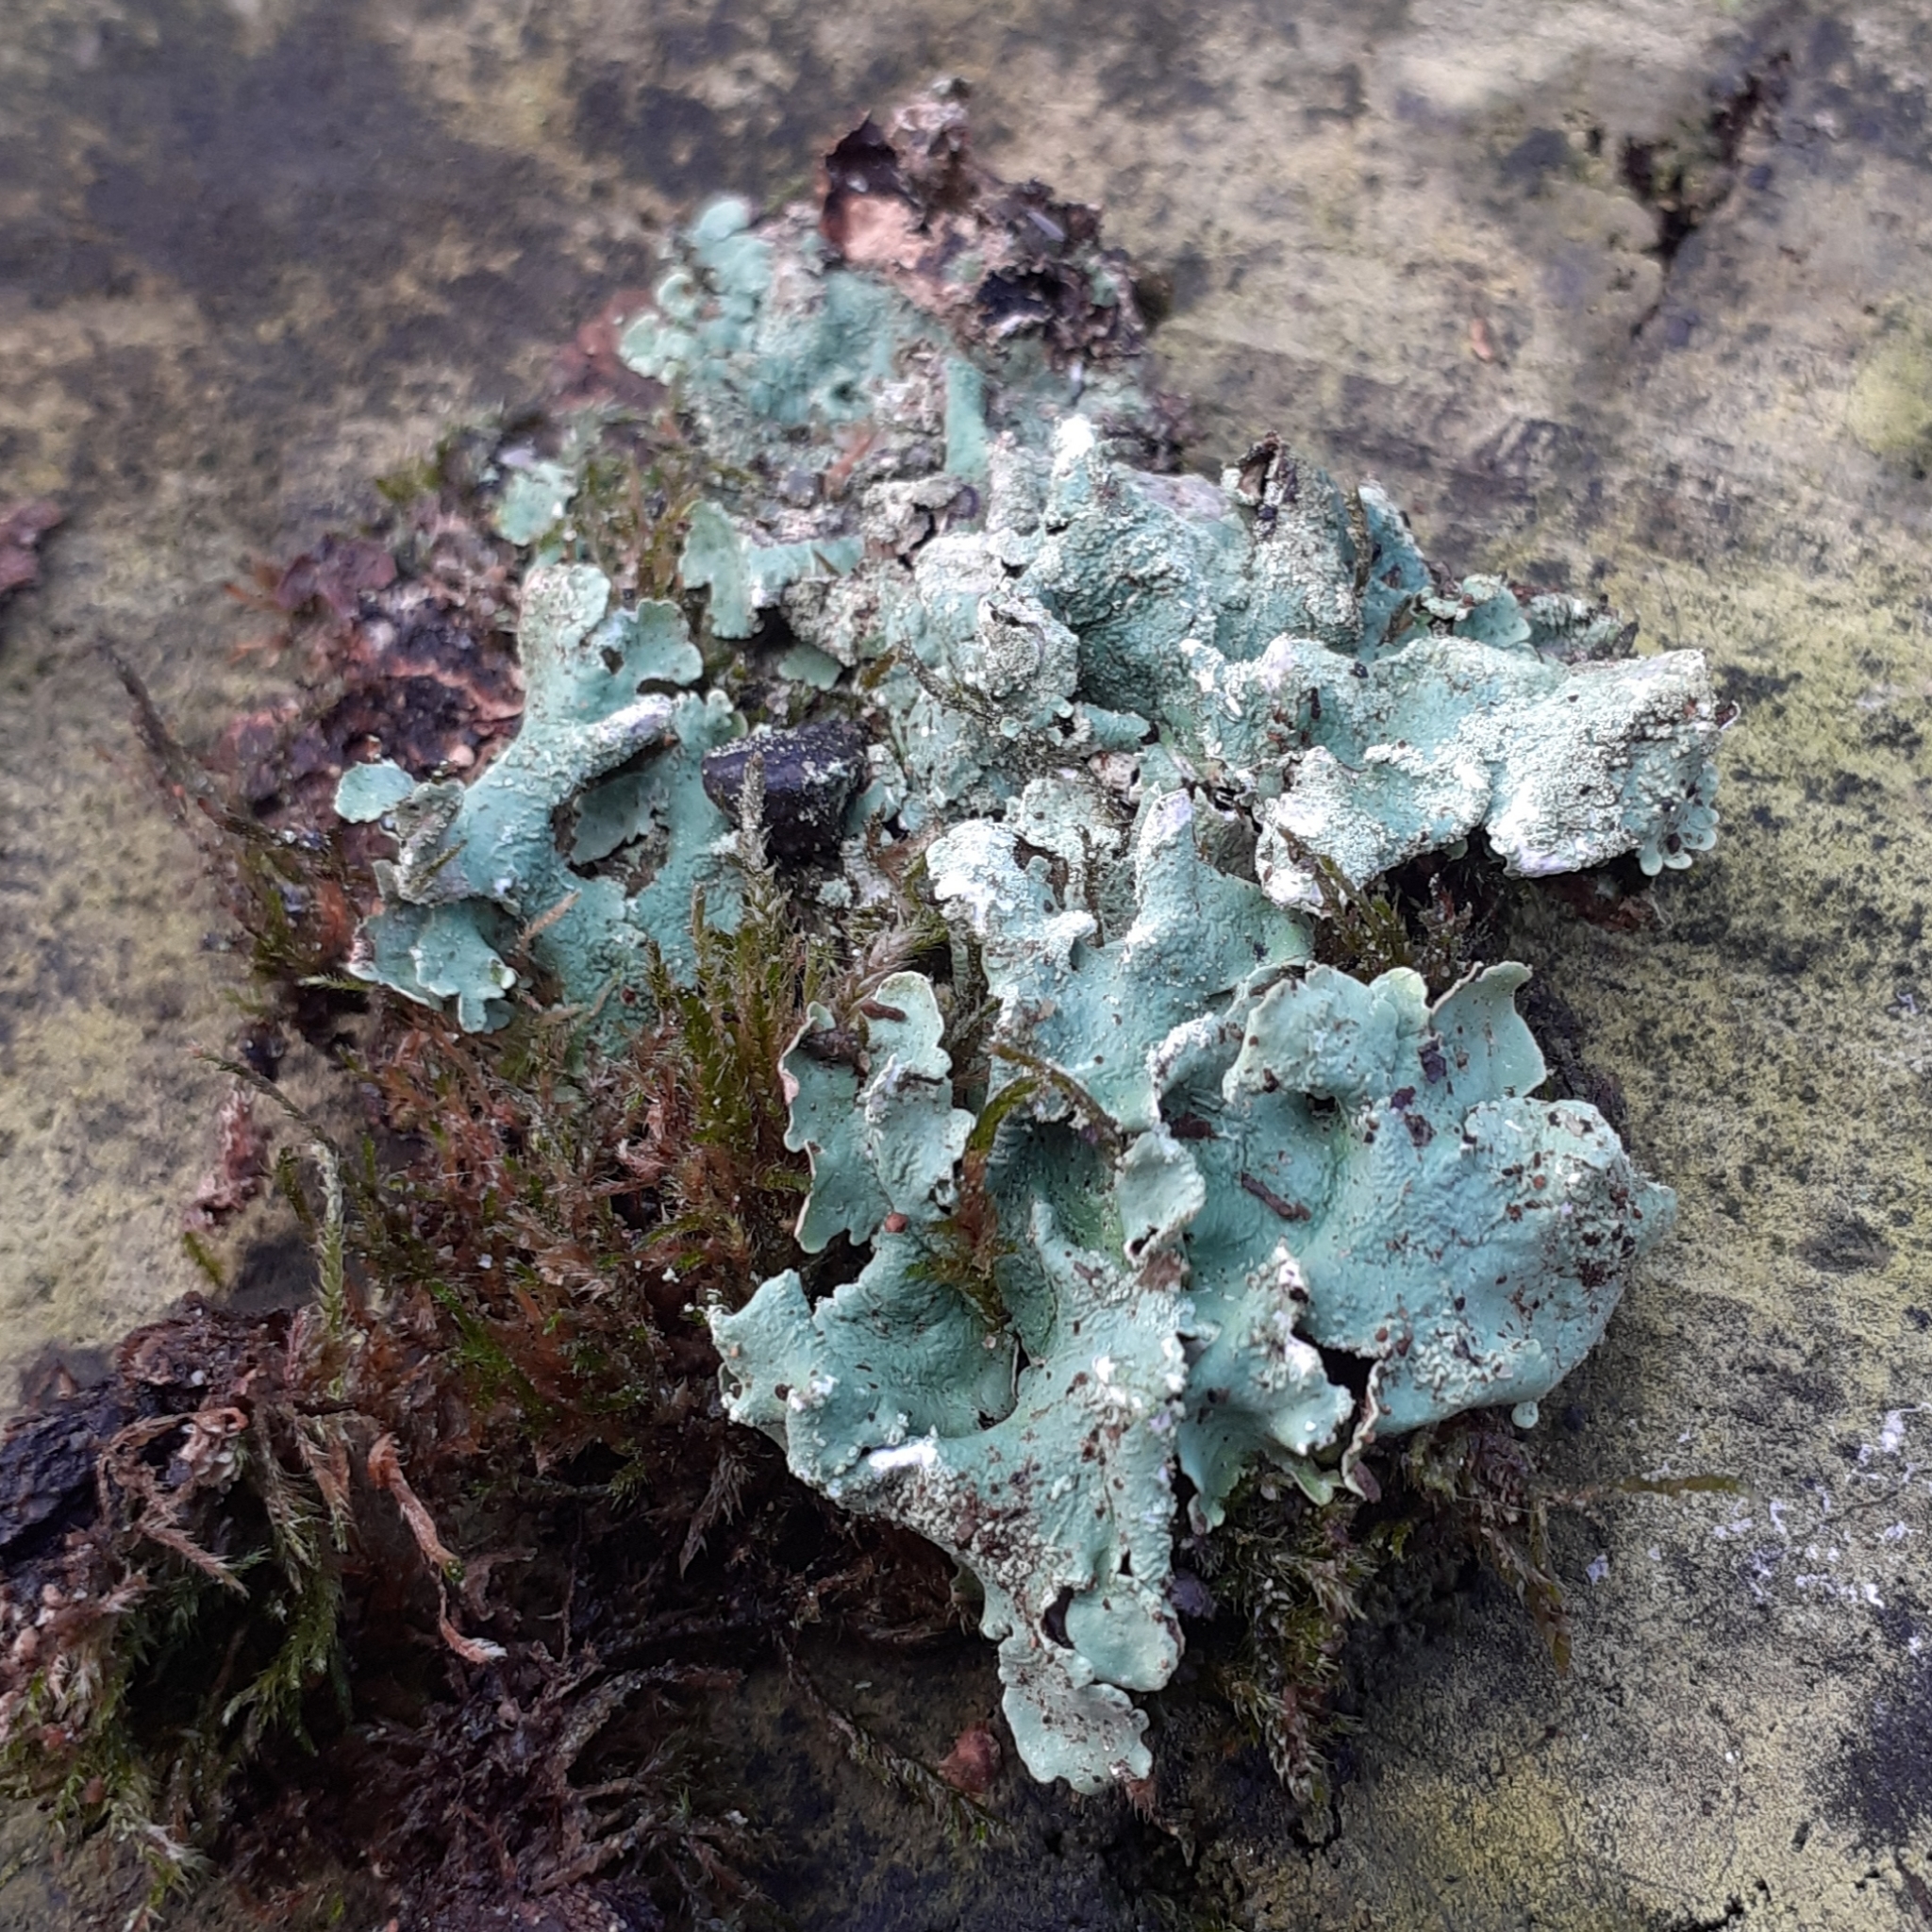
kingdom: Fungi
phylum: Ascomycota
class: Lecanoromycetes
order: Lecanorales
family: Parmeliaceae
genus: Flavoparmelia
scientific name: Flavoparmelia caperata
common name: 40-mile per hour lichen
